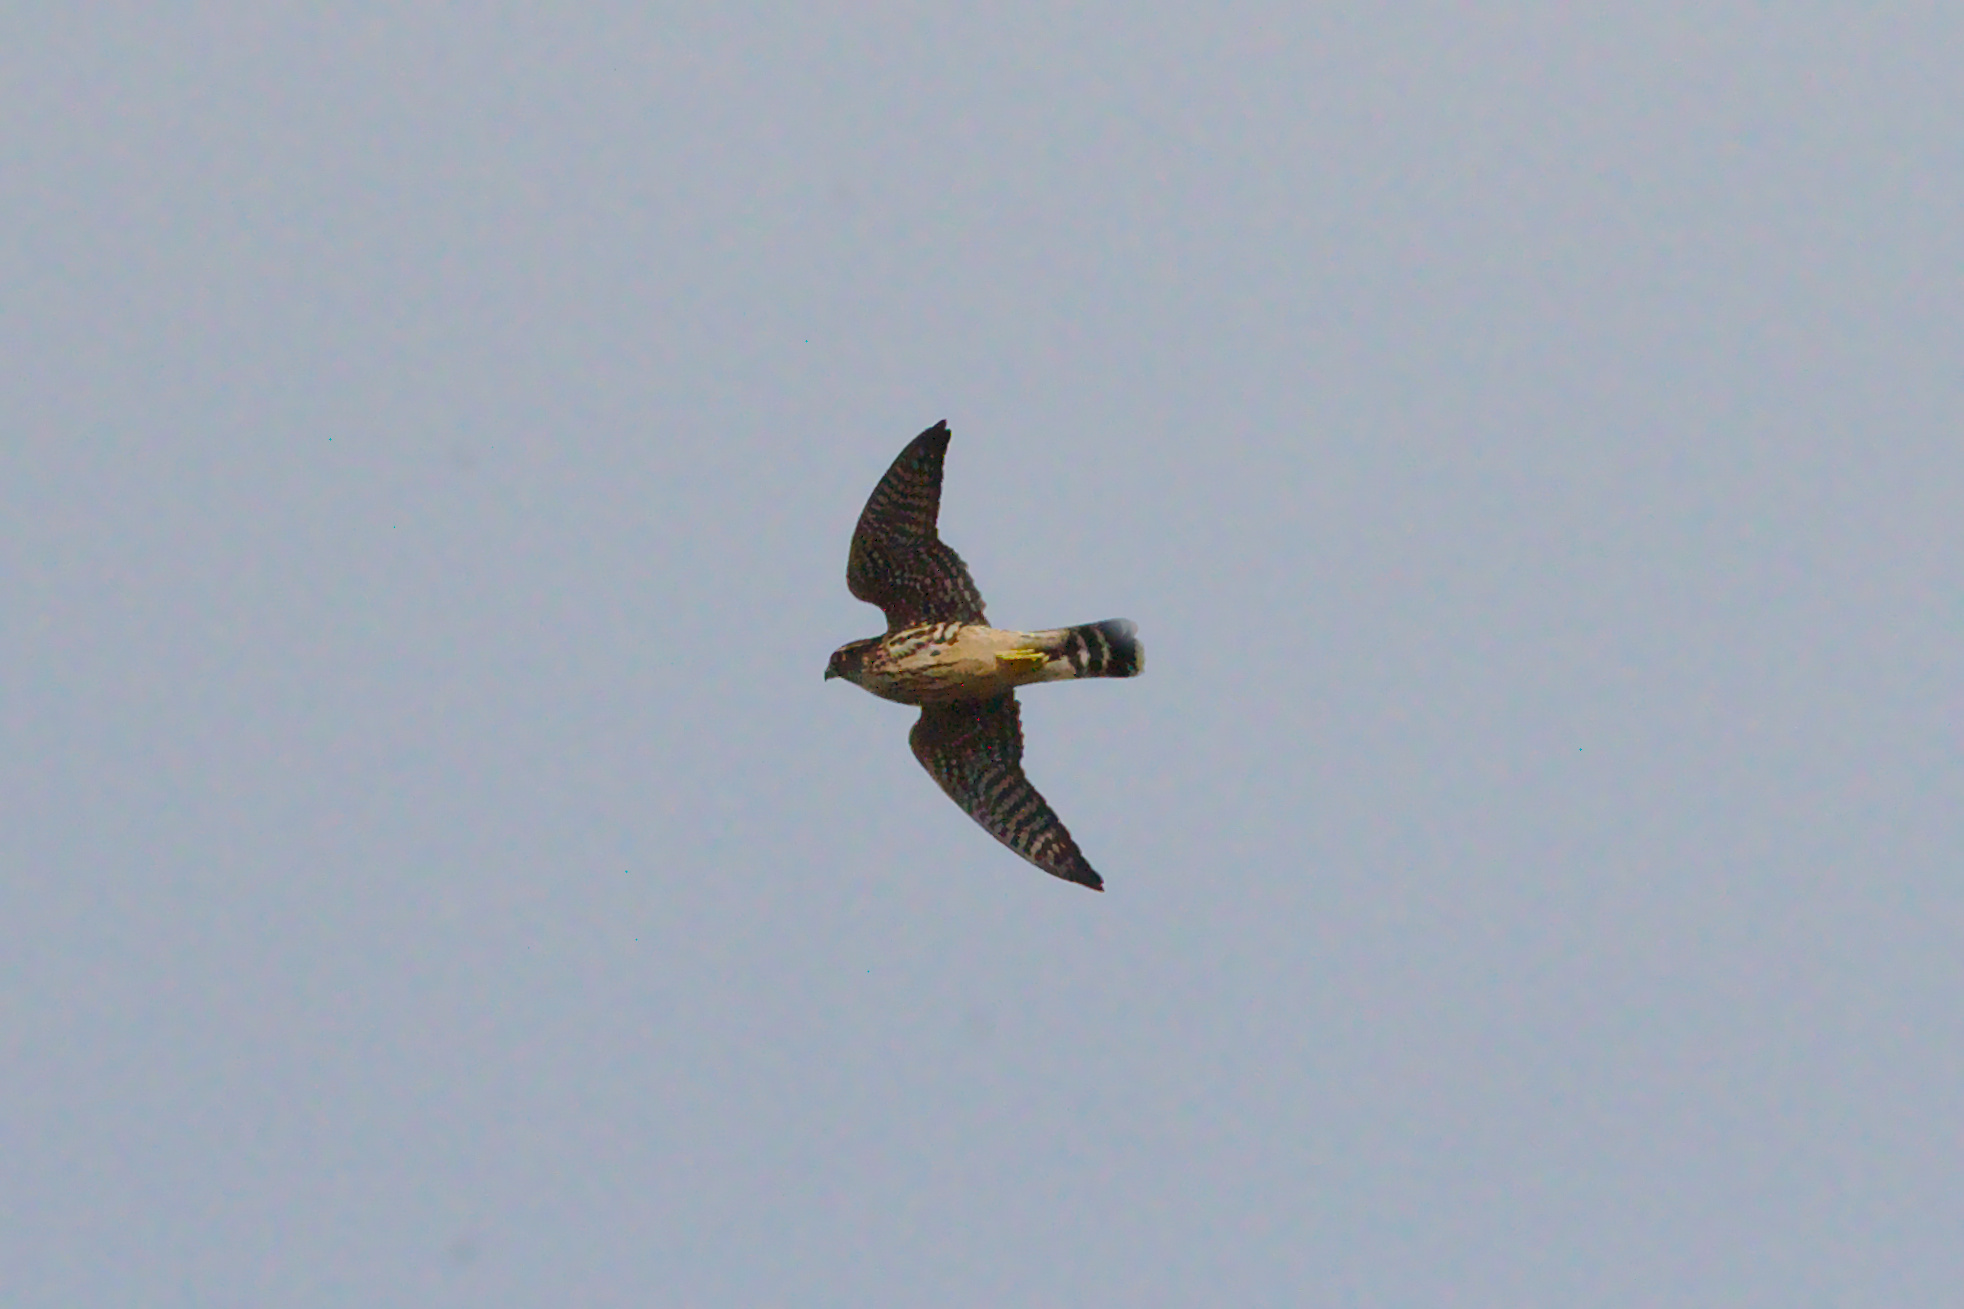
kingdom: Animalia
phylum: Chordata
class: Aves
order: Falconiformes
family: Falconidae
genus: Falco
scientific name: Falco columbarius
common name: Merlin
